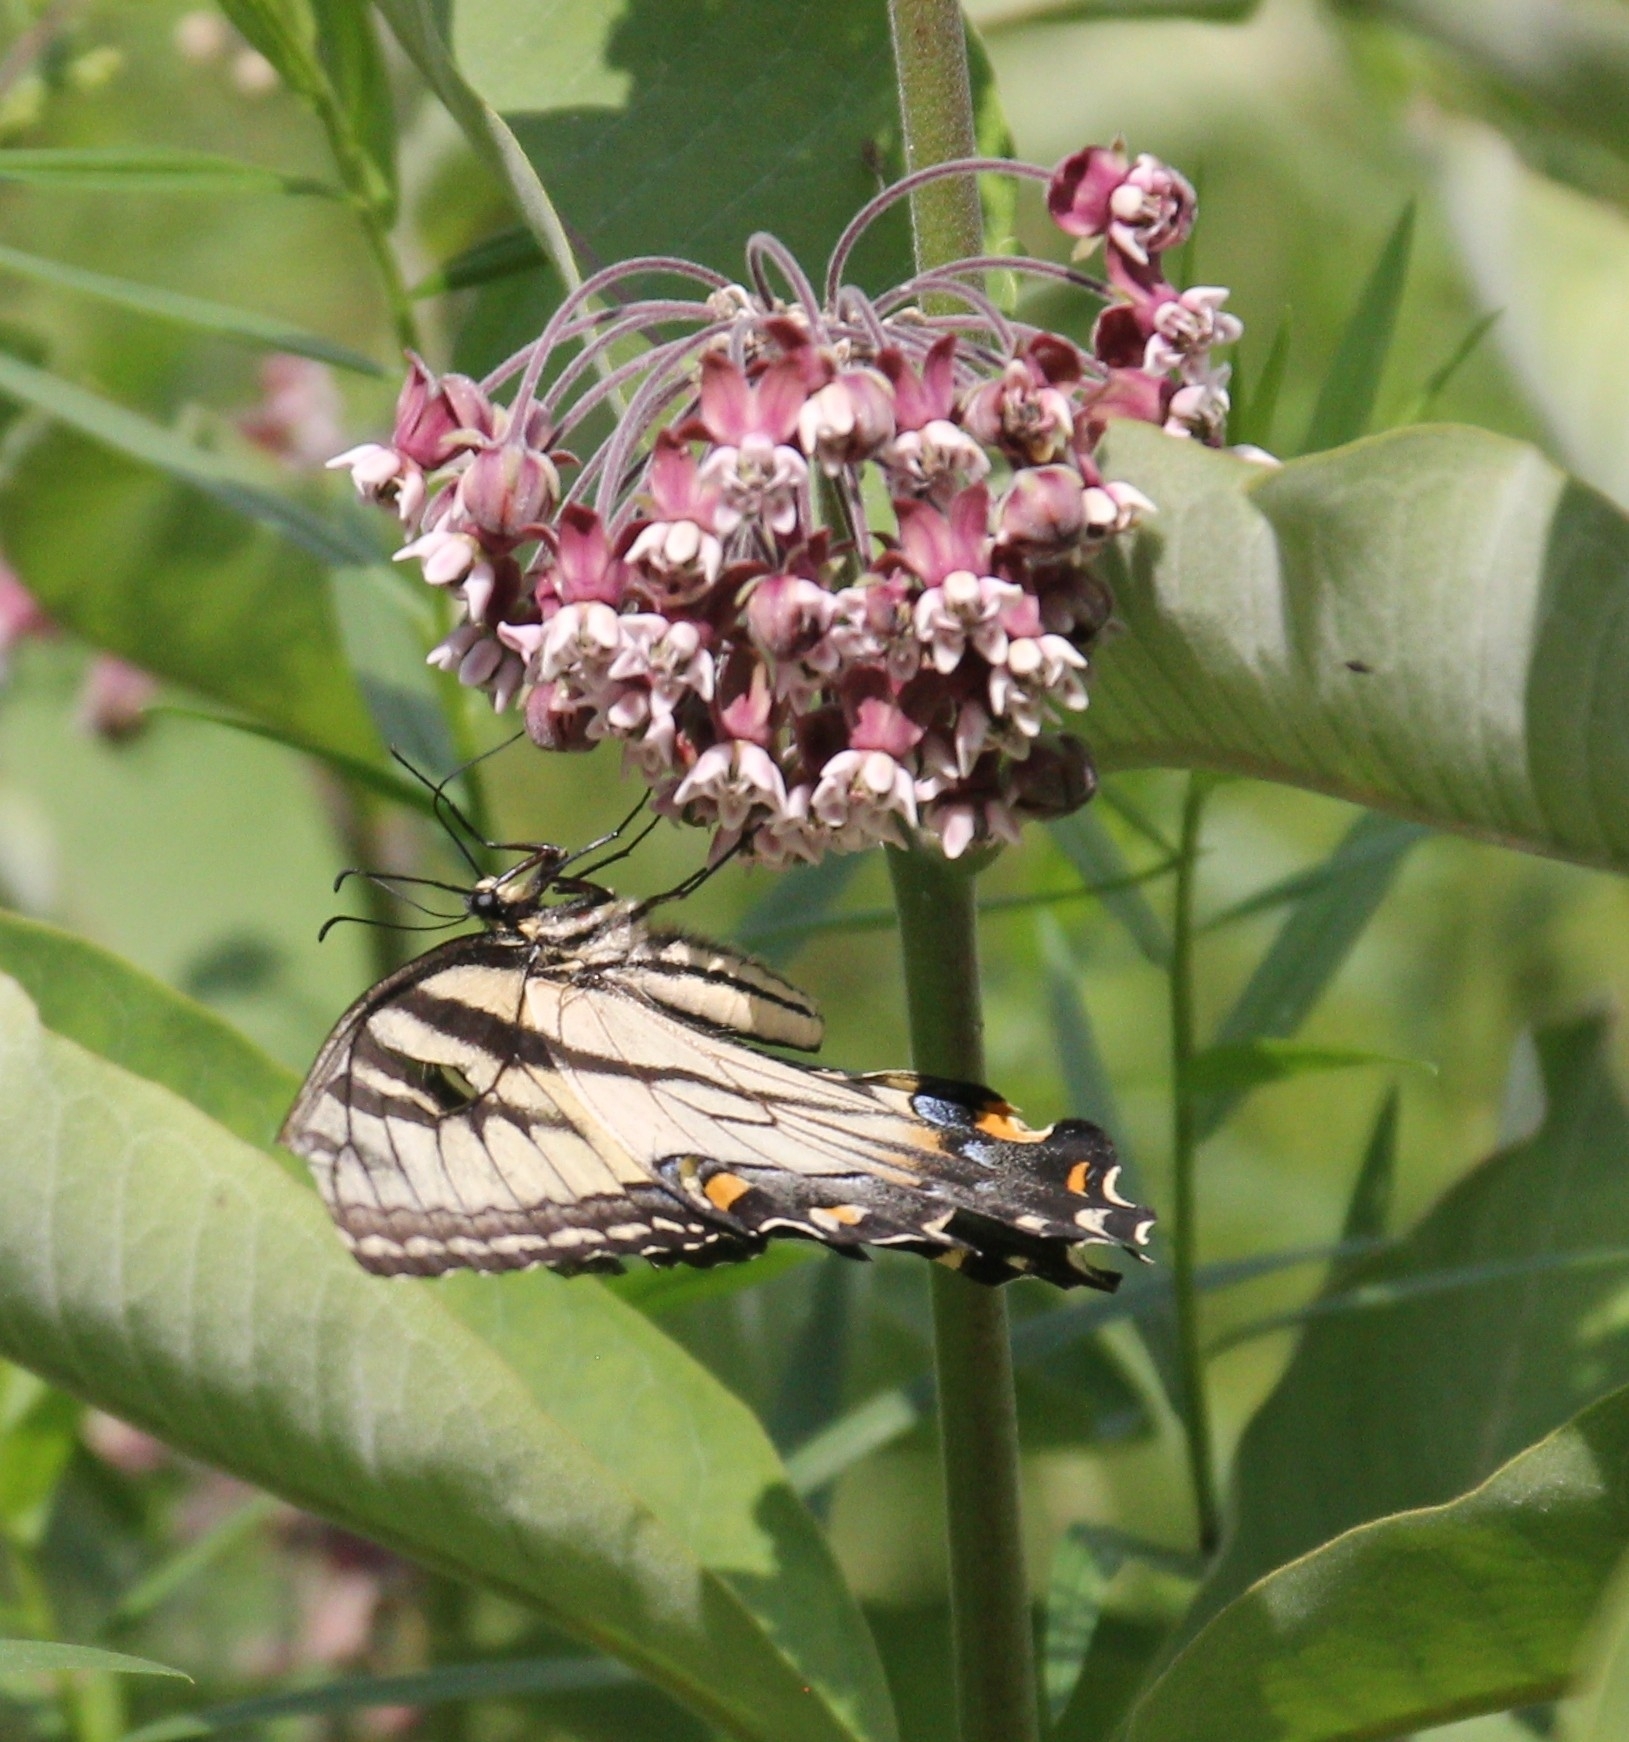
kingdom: Animalia
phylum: Arthropoda
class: Insecta
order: Lepidoptera
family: Papilionidae
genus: Papilio
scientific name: Papilio glaucus
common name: Tiger swallowtail
